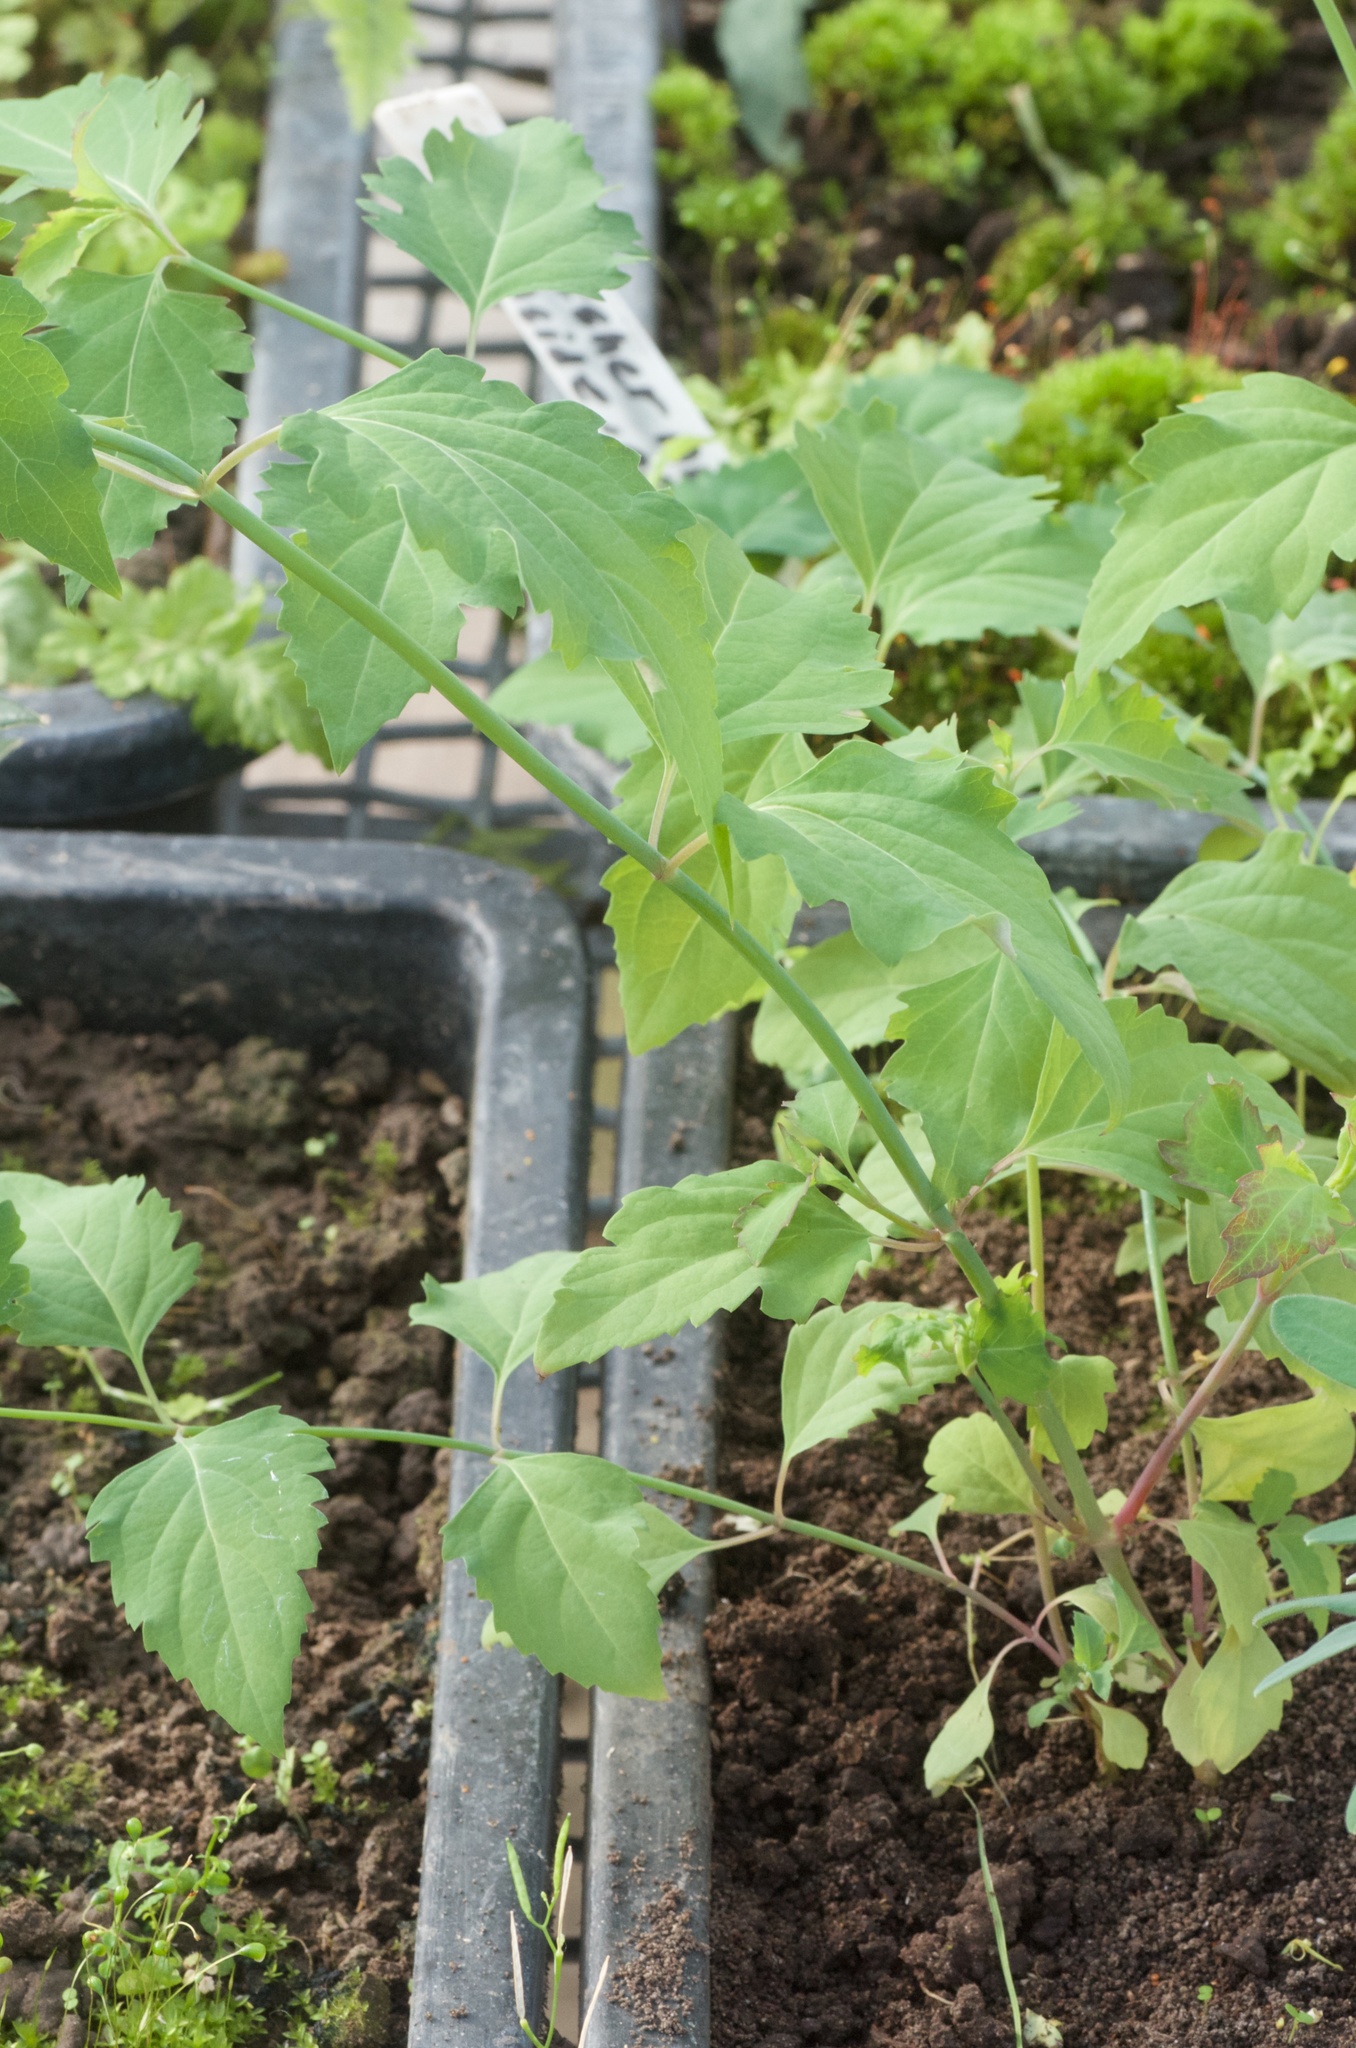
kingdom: Plantae
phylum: Tracheophyta
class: Magnoliopsida
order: Dipsacales
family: Caprifoliaceae
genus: Leycesteria
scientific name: Leycesteria formosa
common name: Himalayan honeysuckle
